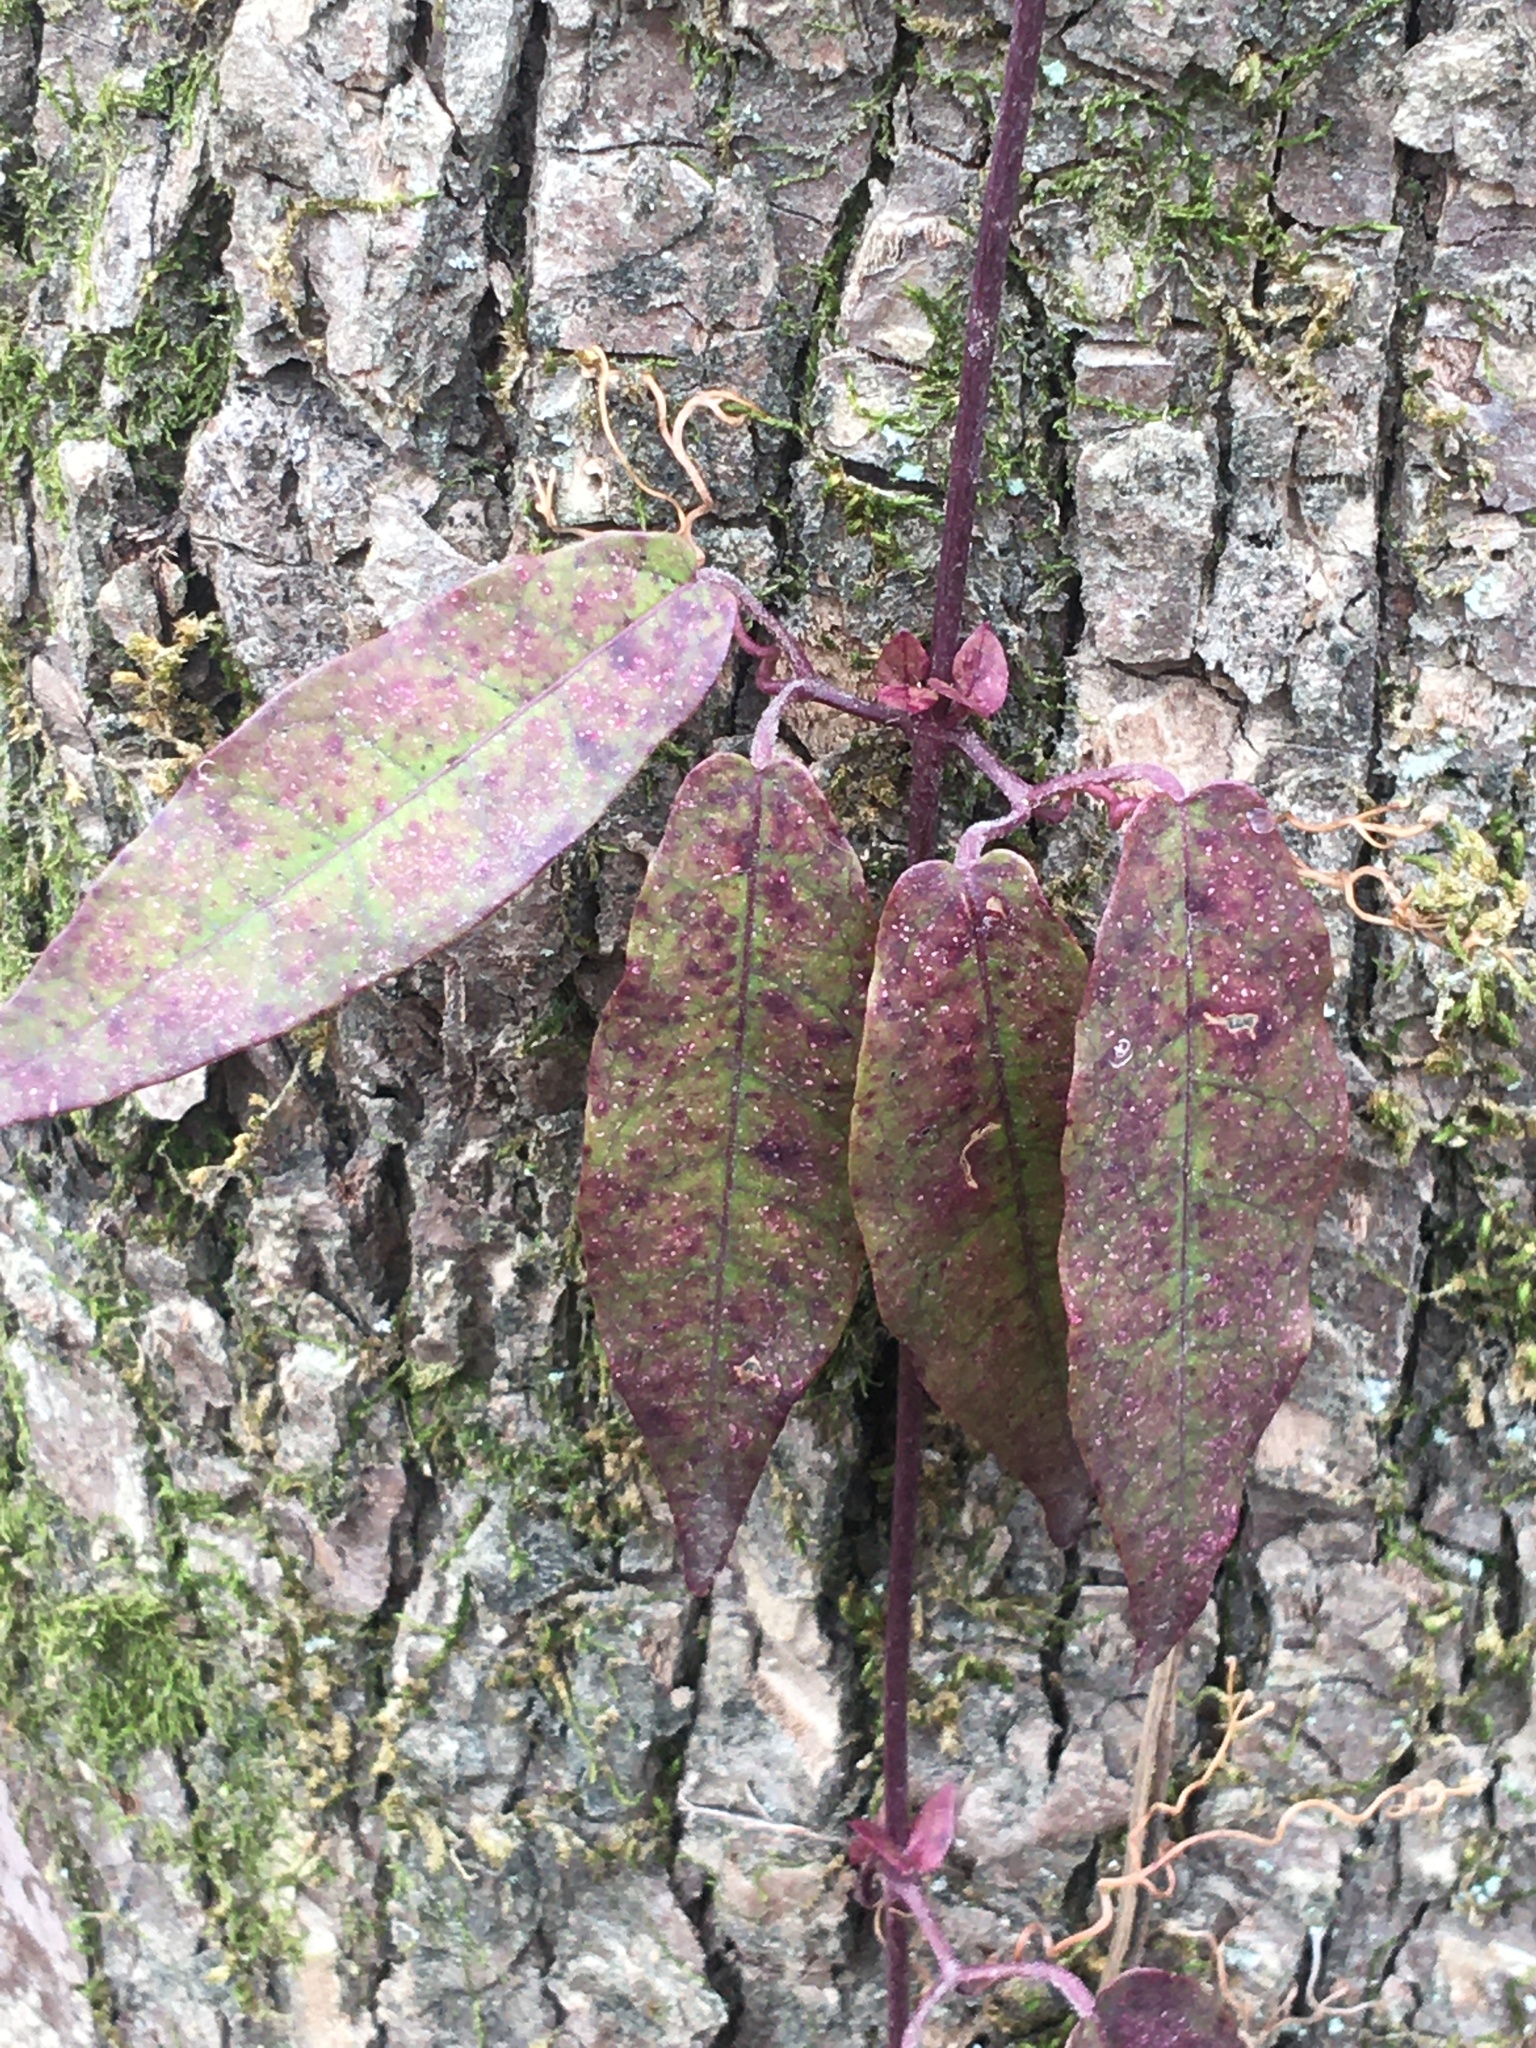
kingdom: Plantae
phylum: Tracheophyta
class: Magnoliopsida
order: Lamiales
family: Bignoniaceae
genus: Bignonia
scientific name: Bignonia capreolata
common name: Crossvine
